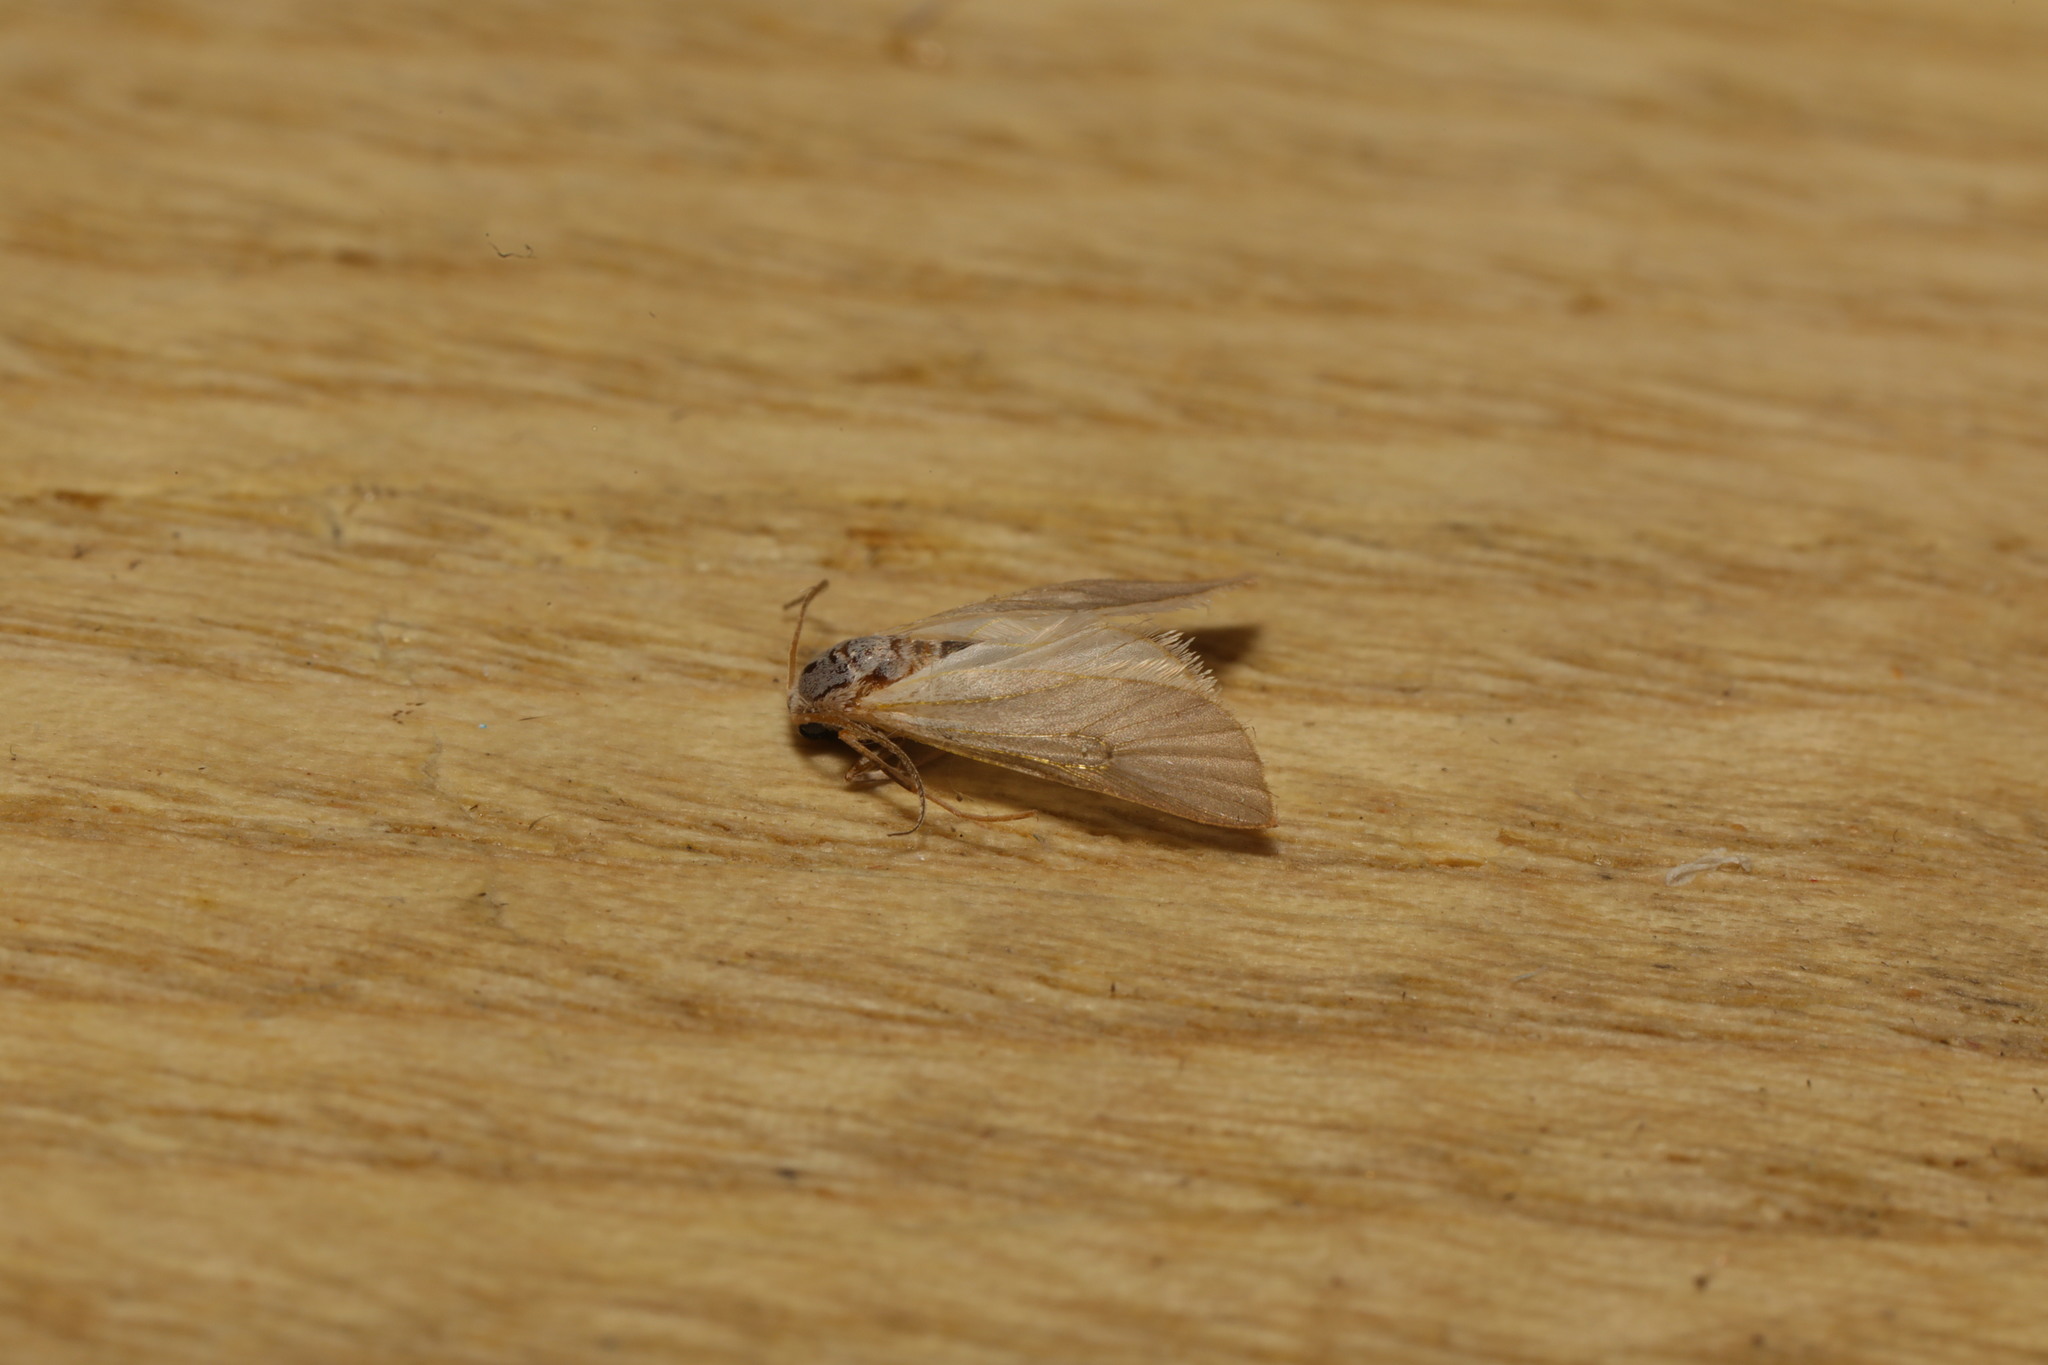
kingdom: Animalia
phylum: Arthropoda
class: Insecta
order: Lepidoptera
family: Crambidae
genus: Acentria
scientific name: Acentria ephemerella
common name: European water moth
